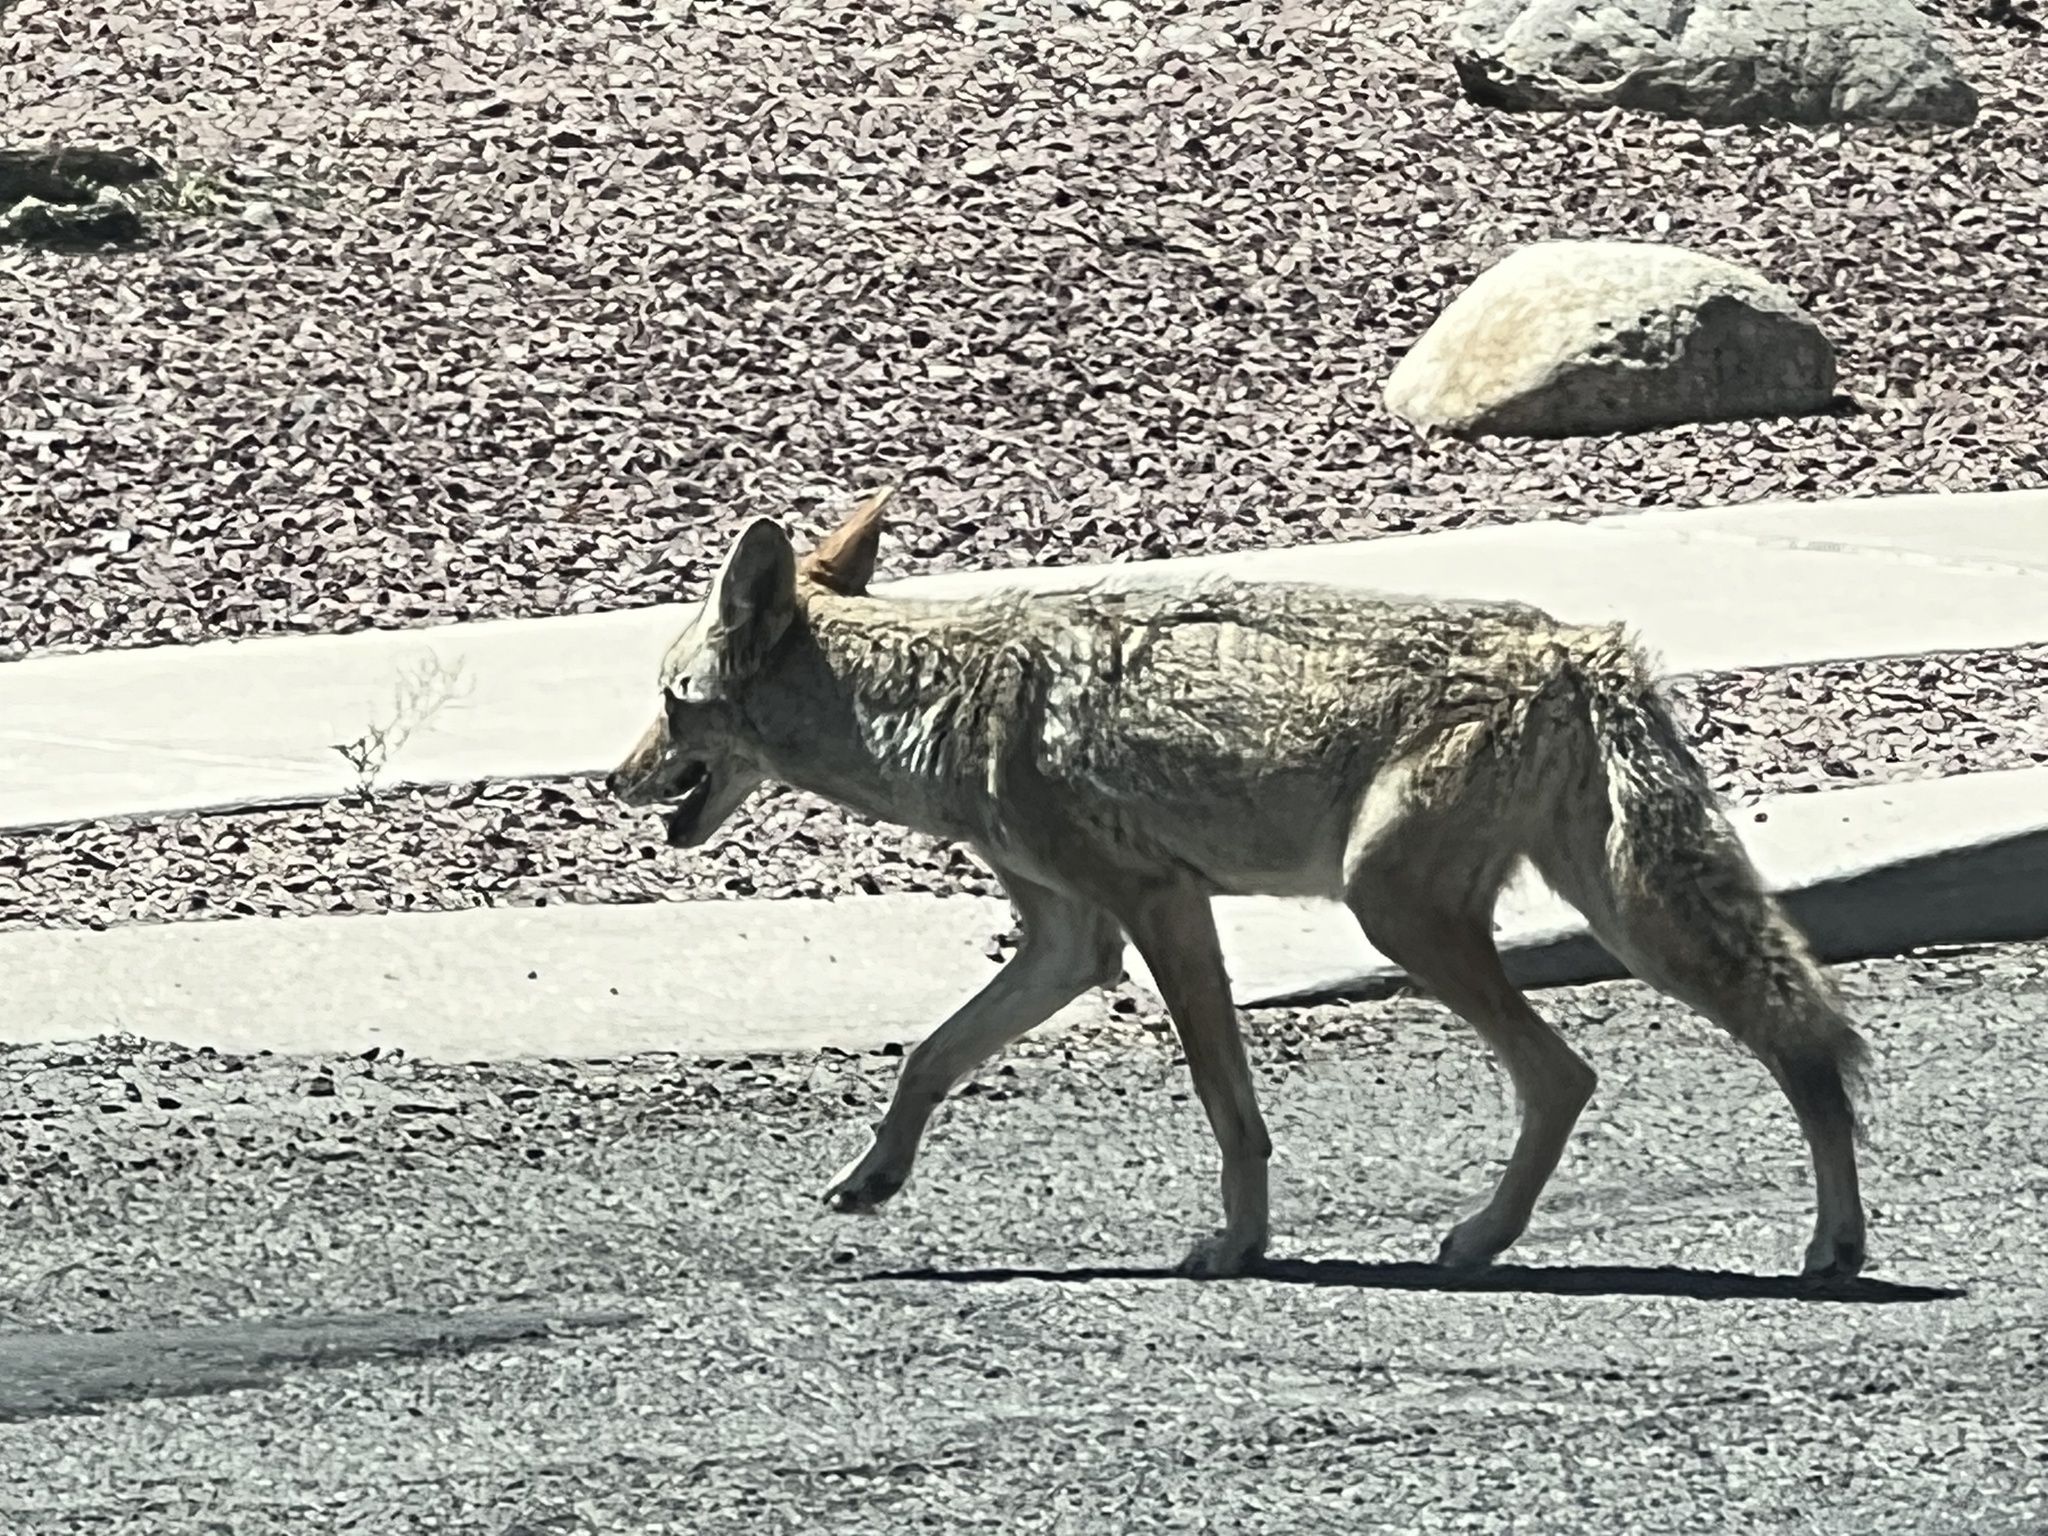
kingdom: Animalia
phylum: Chordata
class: Mammalia
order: Carnivora
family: Canidae
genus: Canis
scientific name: Canis latrans
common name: Coyote
